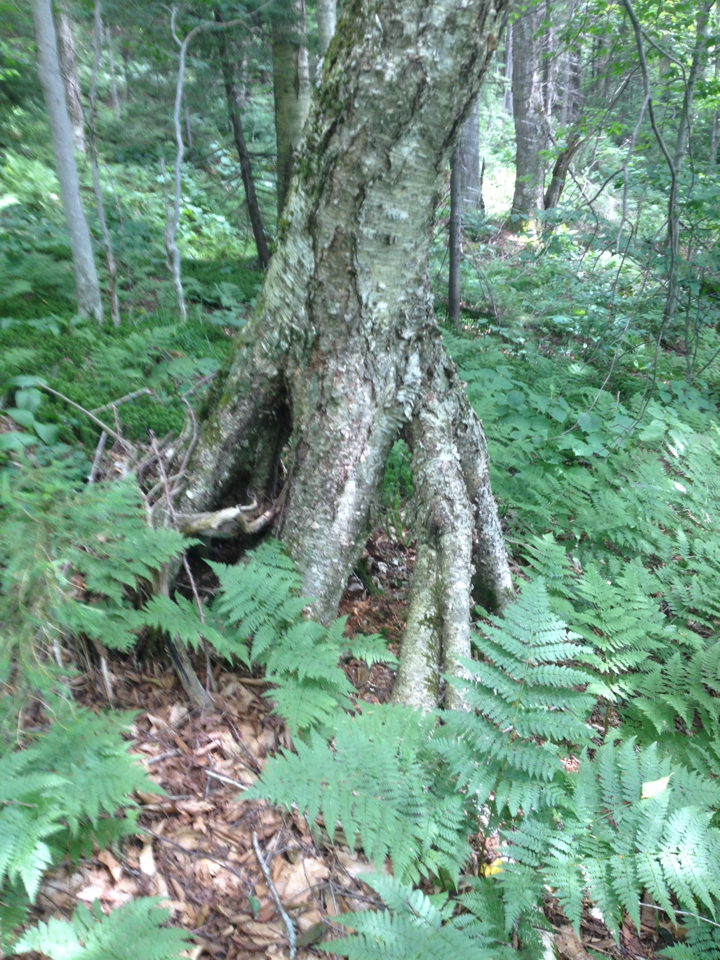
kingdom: Plantae
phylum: Tracheophyta
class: Magnoliopsida
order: Fagales
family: Betulaceae
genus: Betula
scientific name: Betula alleghaniensis
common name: Yellow birch
